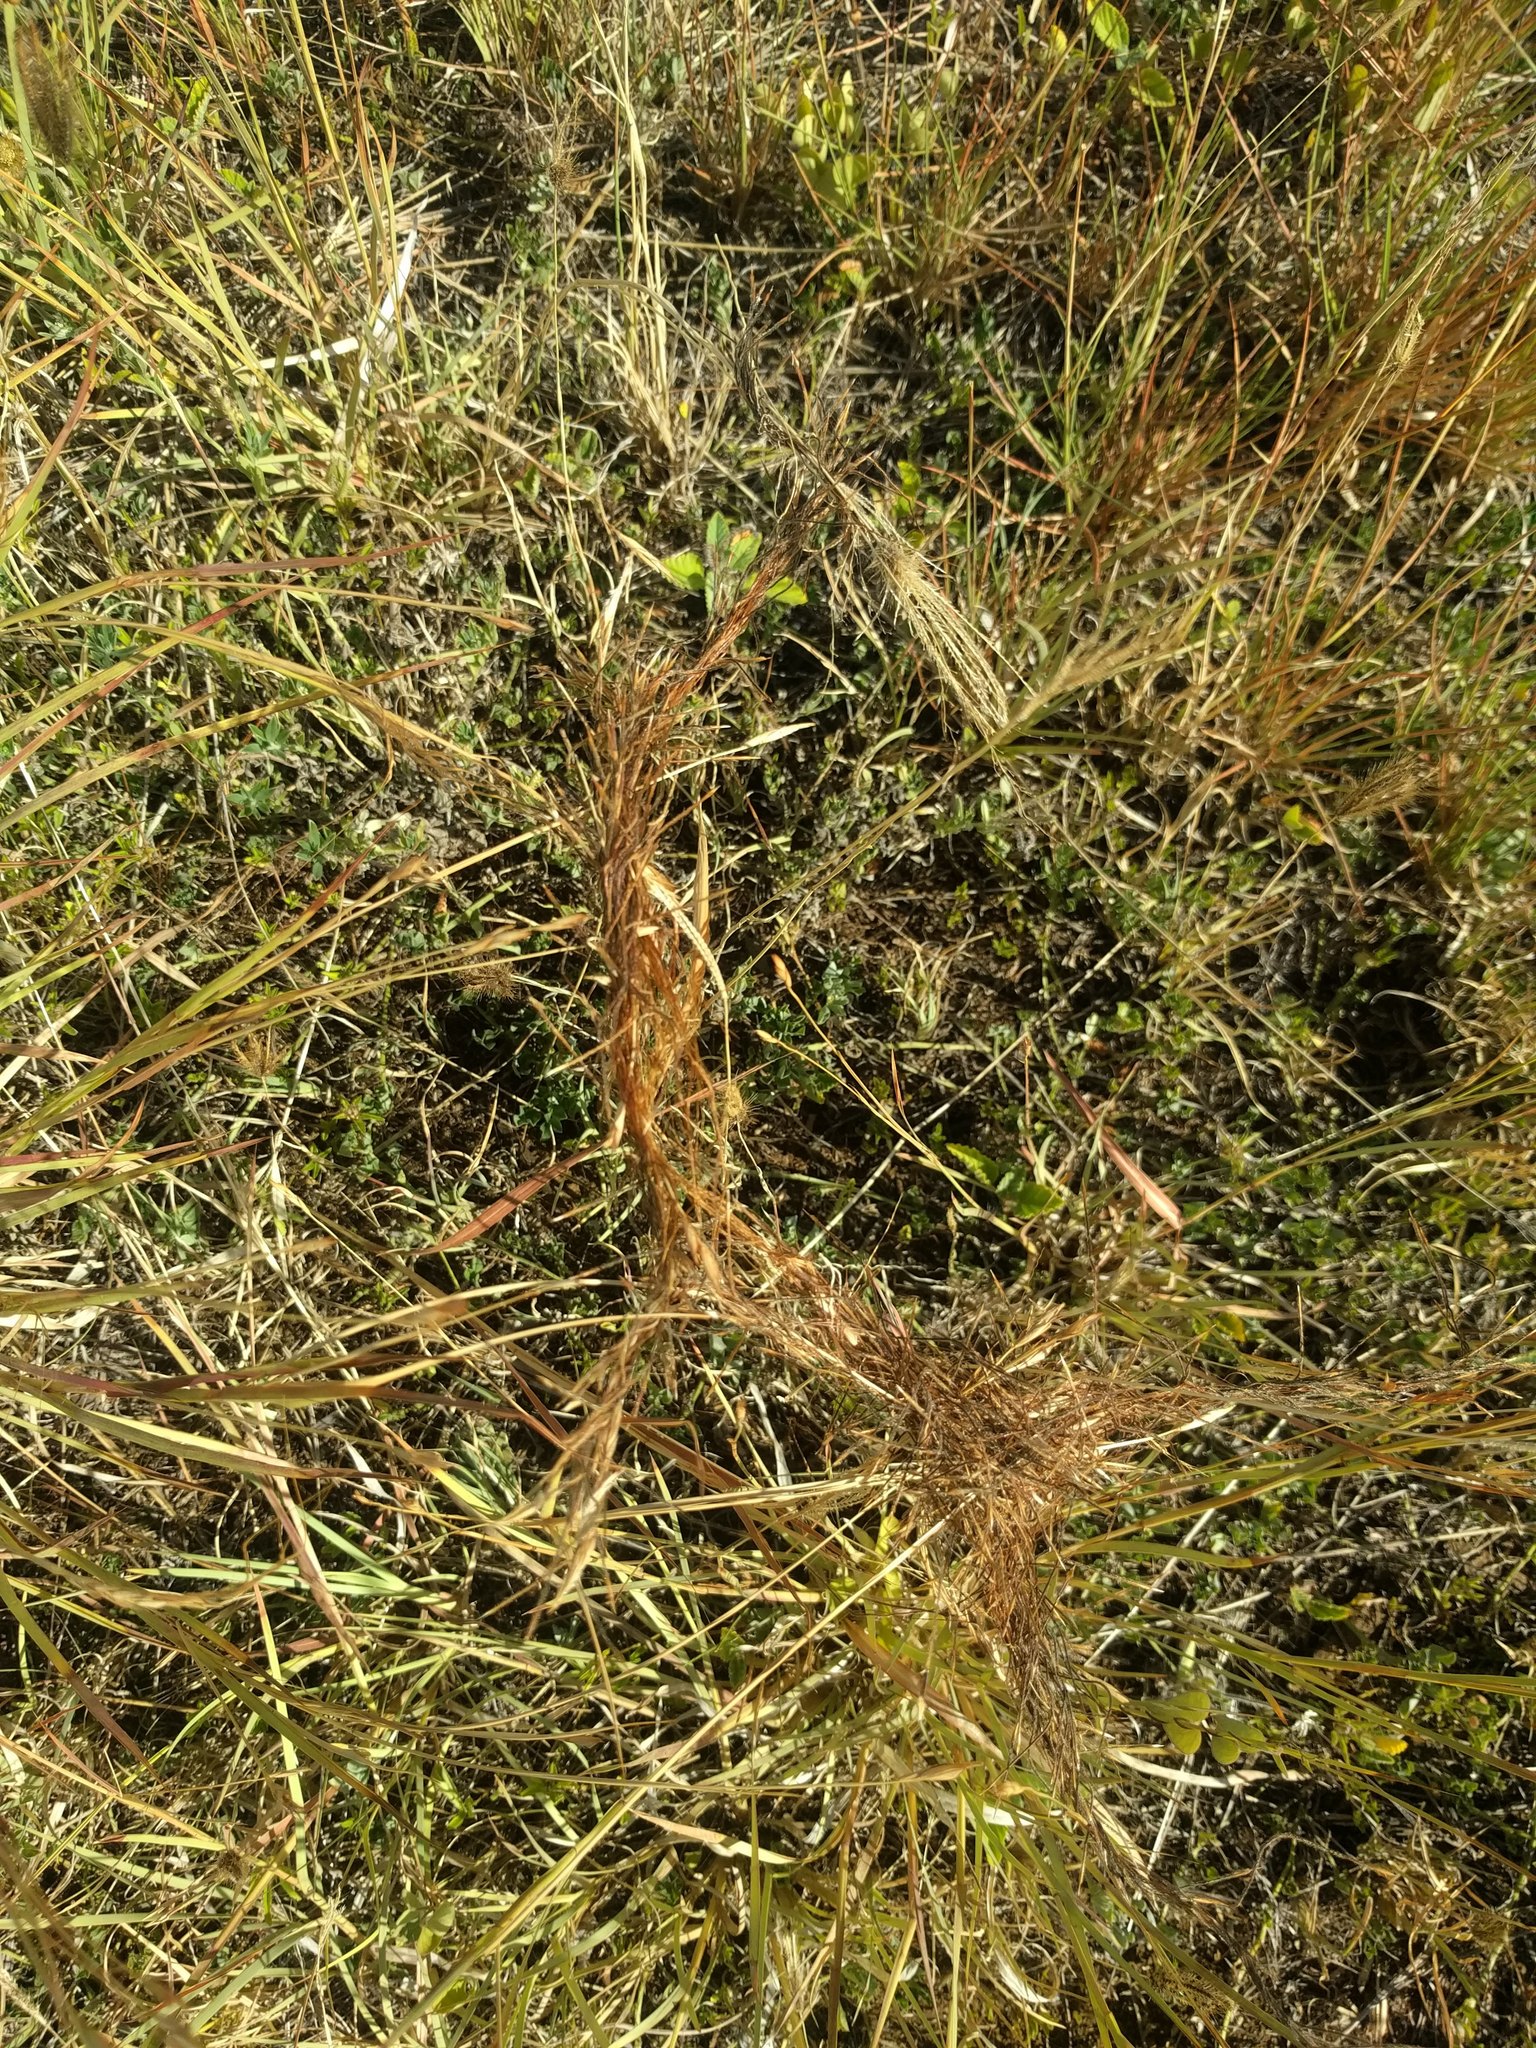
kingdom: Plantae
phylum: Tracheophyta
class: Liliopsida
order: Poales
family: Poaceae
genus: Heteropogon
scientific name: Heteropogon contortus
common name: Tanglehead
